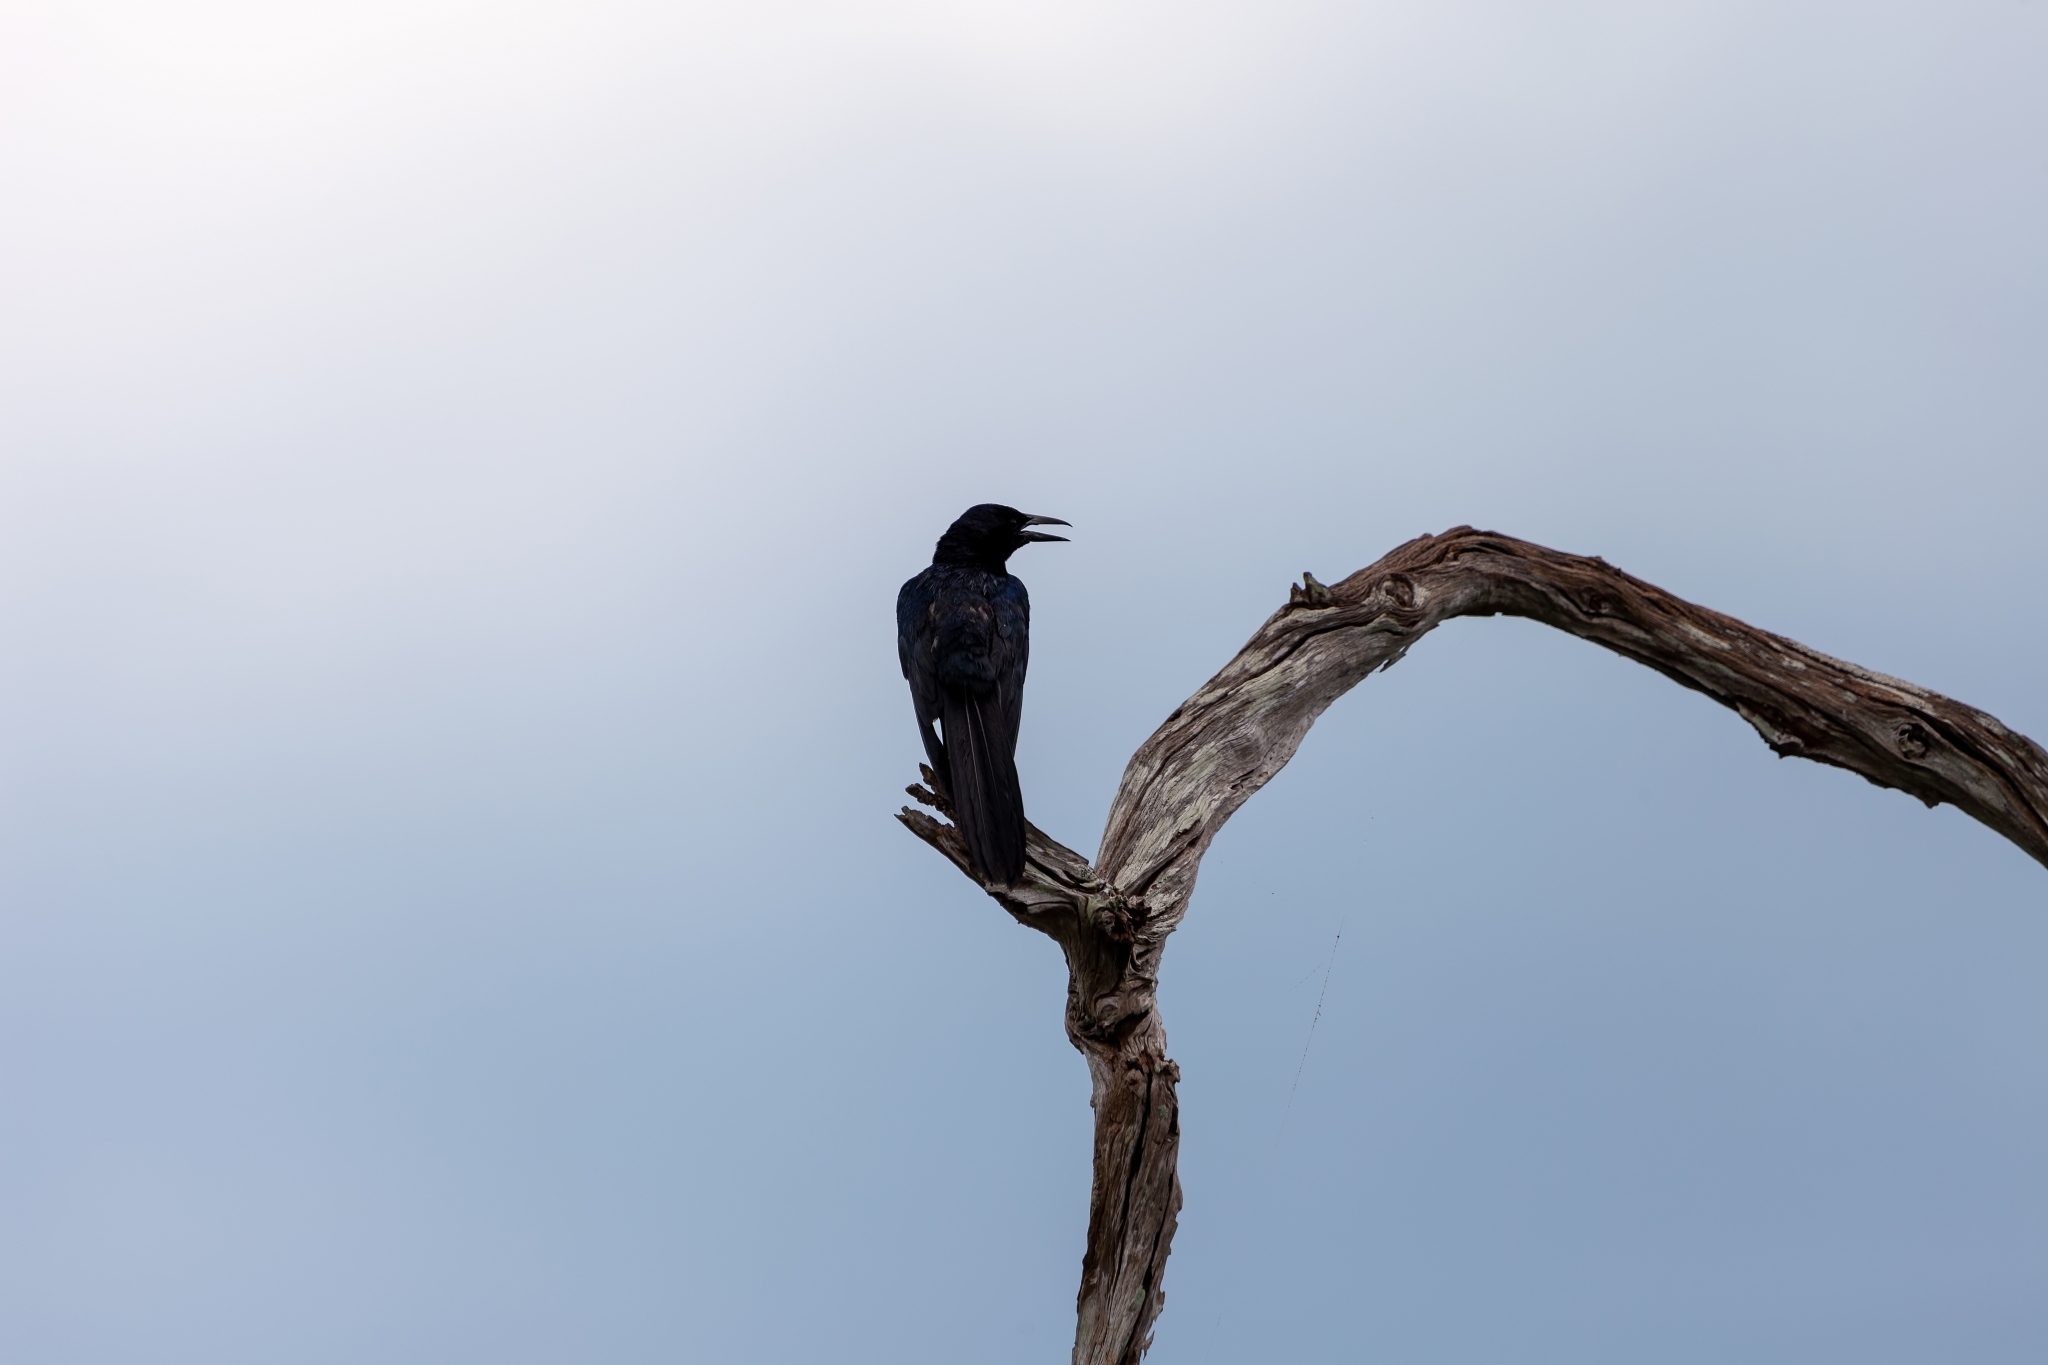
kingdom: Animalia
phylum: Chordata
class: Aves
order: Passeriformes
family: Icteridae
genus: Quiscalus
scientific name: Quiscalus major
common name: Boat-tailed grackle
